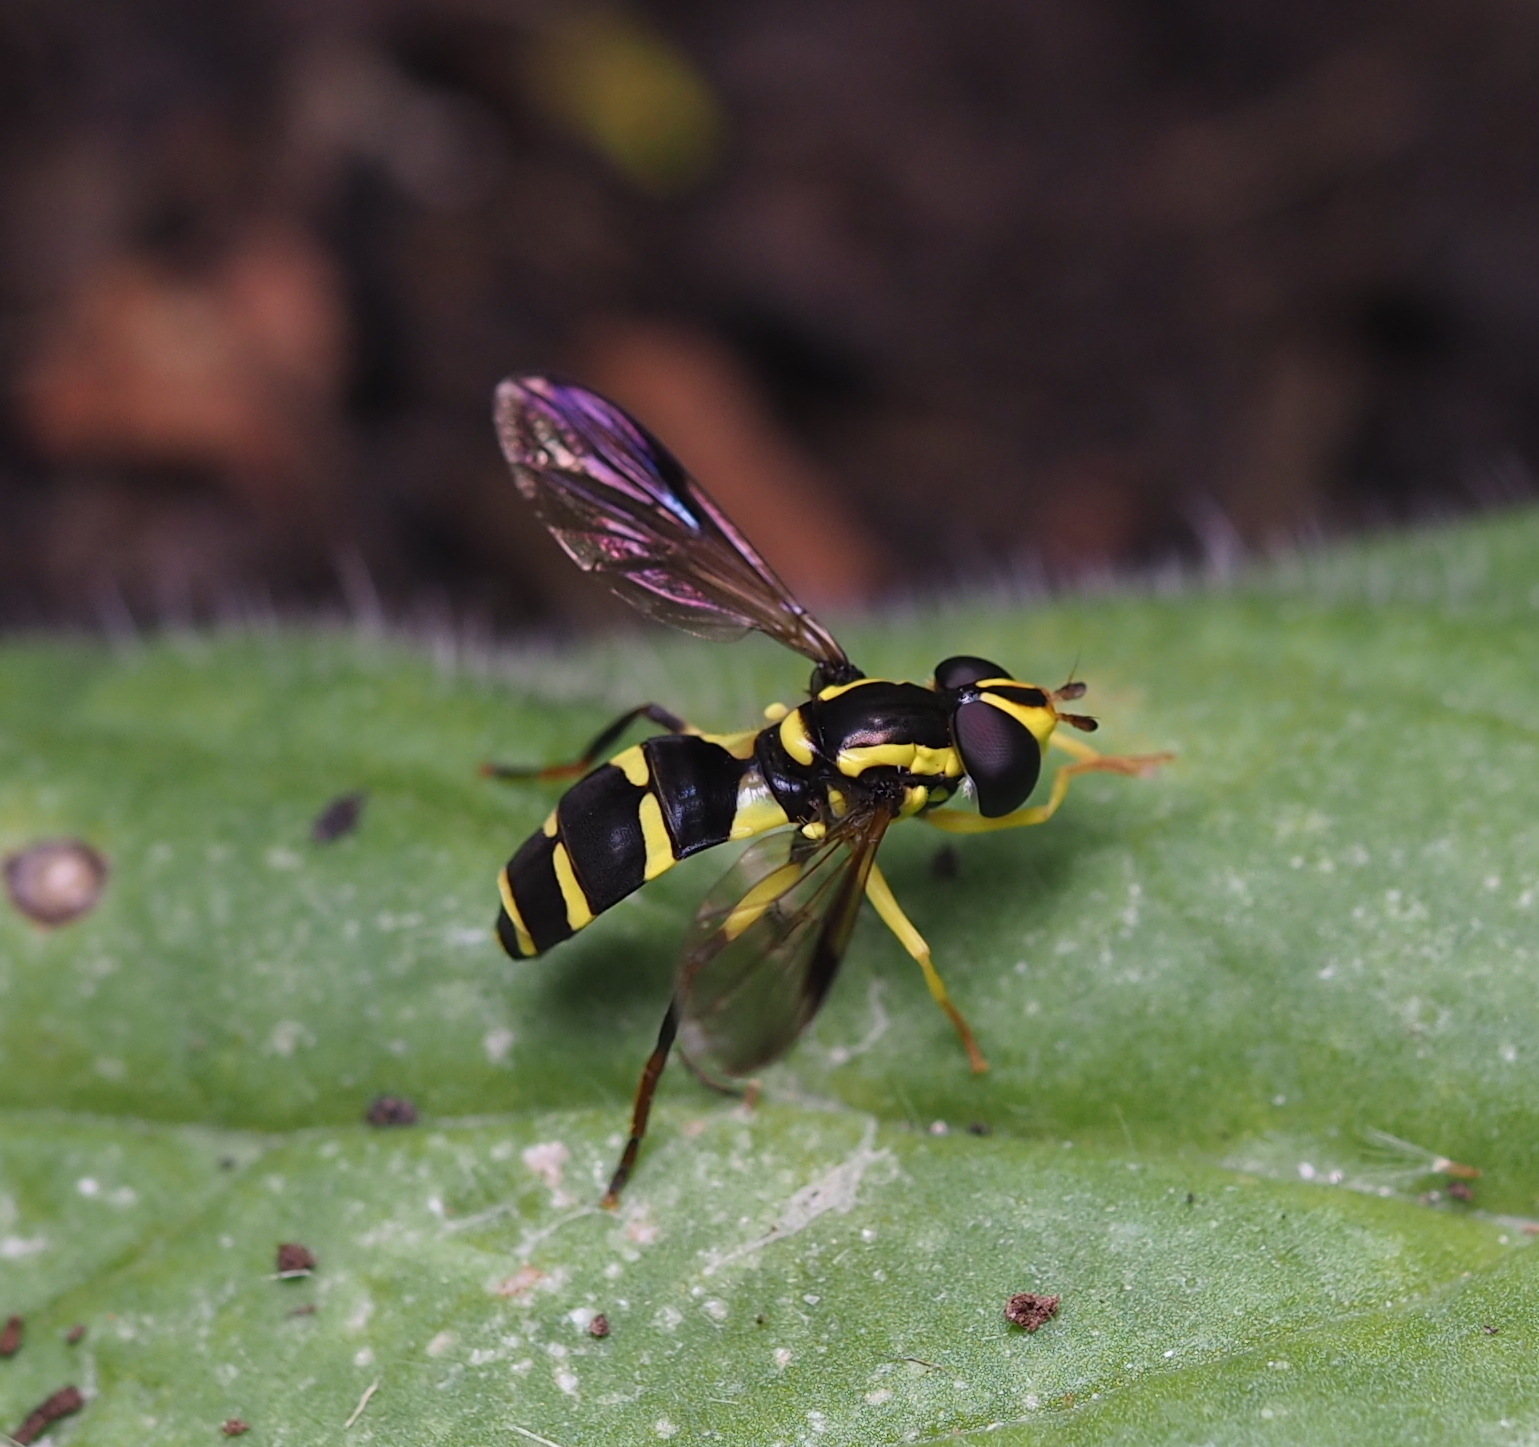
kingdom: Animalia
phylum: Arthropoda
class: Insecta
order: Diptera
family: Syrphidae
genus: Philhelius
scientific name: Philhelius dives
